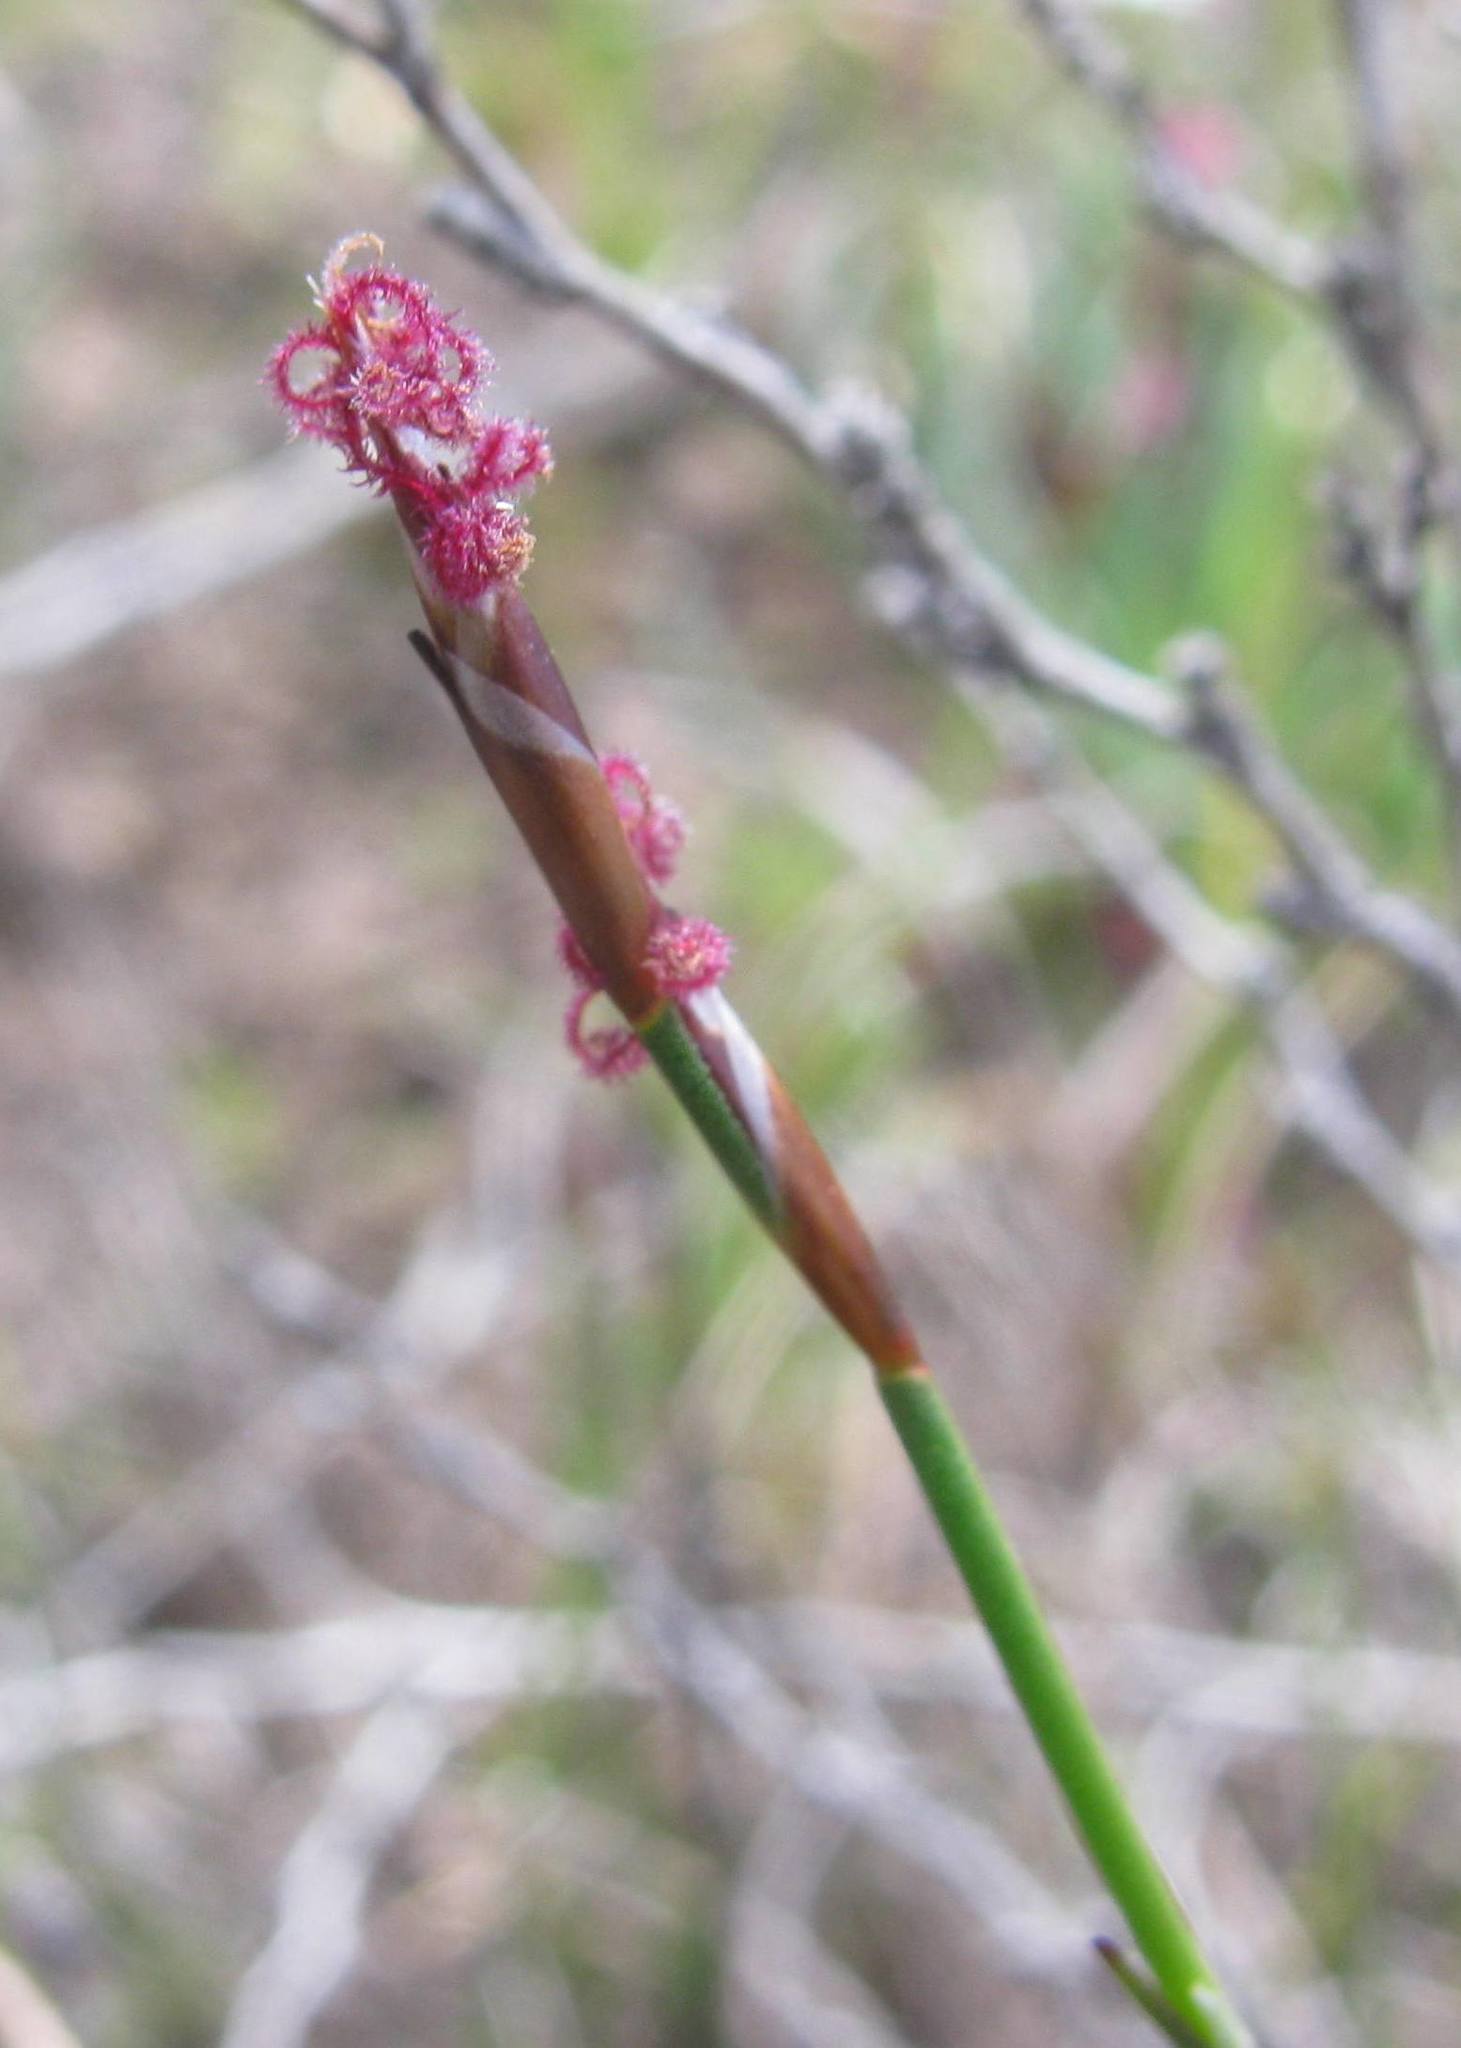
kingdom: Plantae
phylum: Tracheophyta
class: Liliopsida
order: Poales
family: Restionaceae
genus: Restio
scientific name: Restio pratensis
